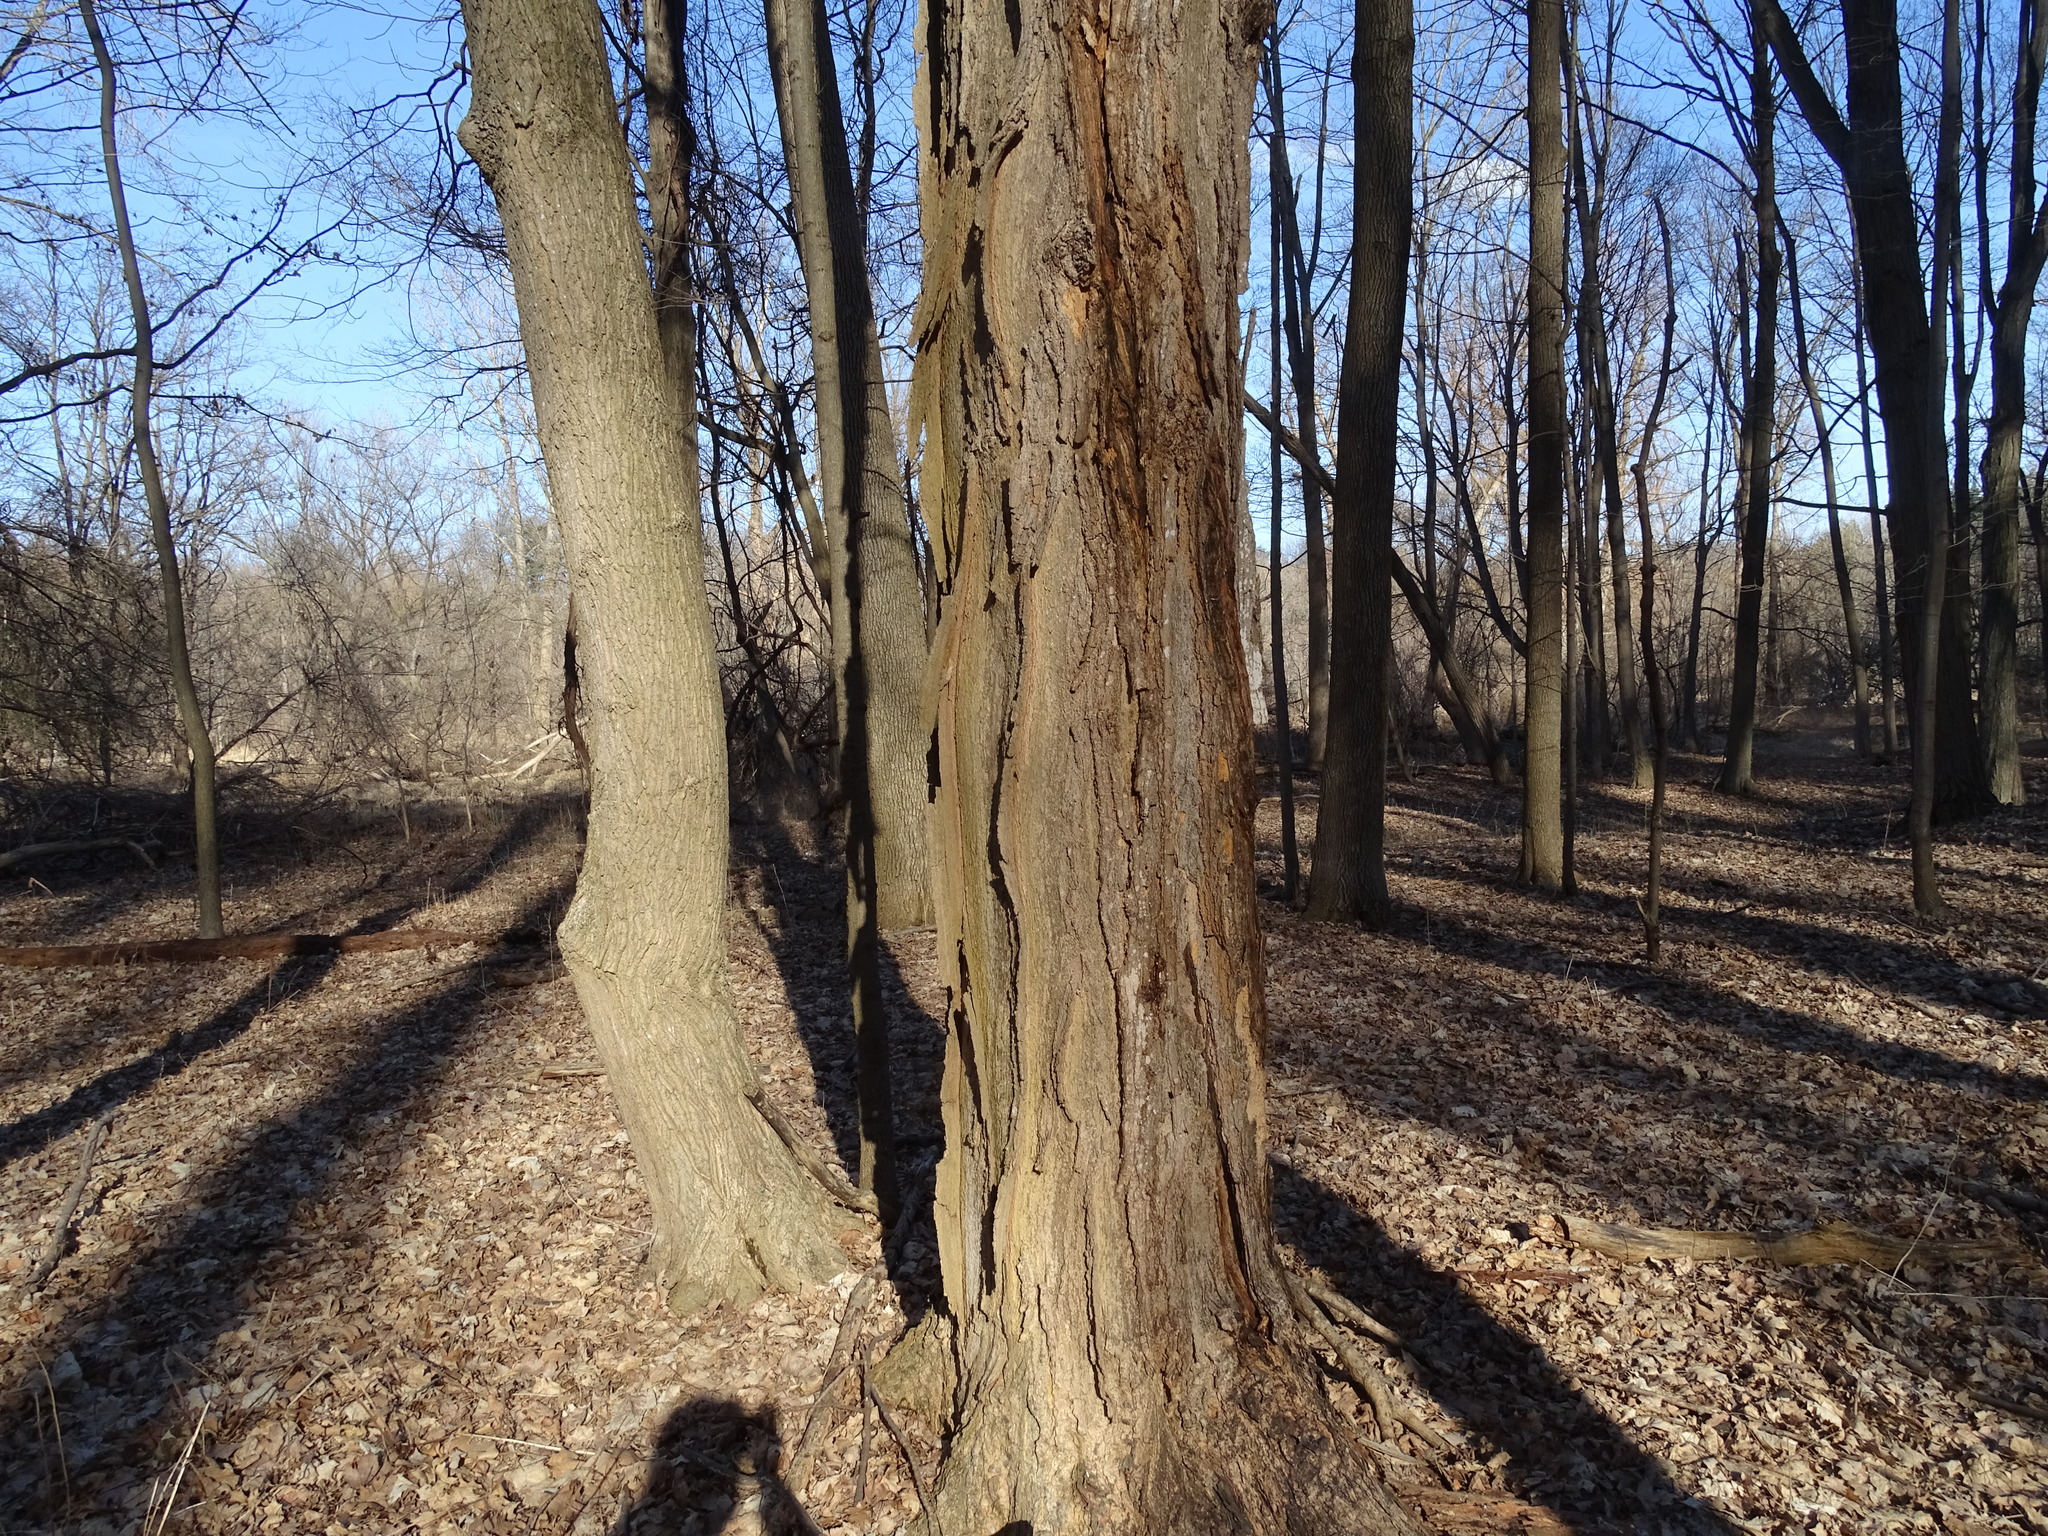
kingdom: Plantae
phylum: Tracheophyta
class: Magnoliopsida
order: Sapindales
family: Sapindaceae
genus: Acer
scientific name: Acer saccharum
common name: Sugar maple
